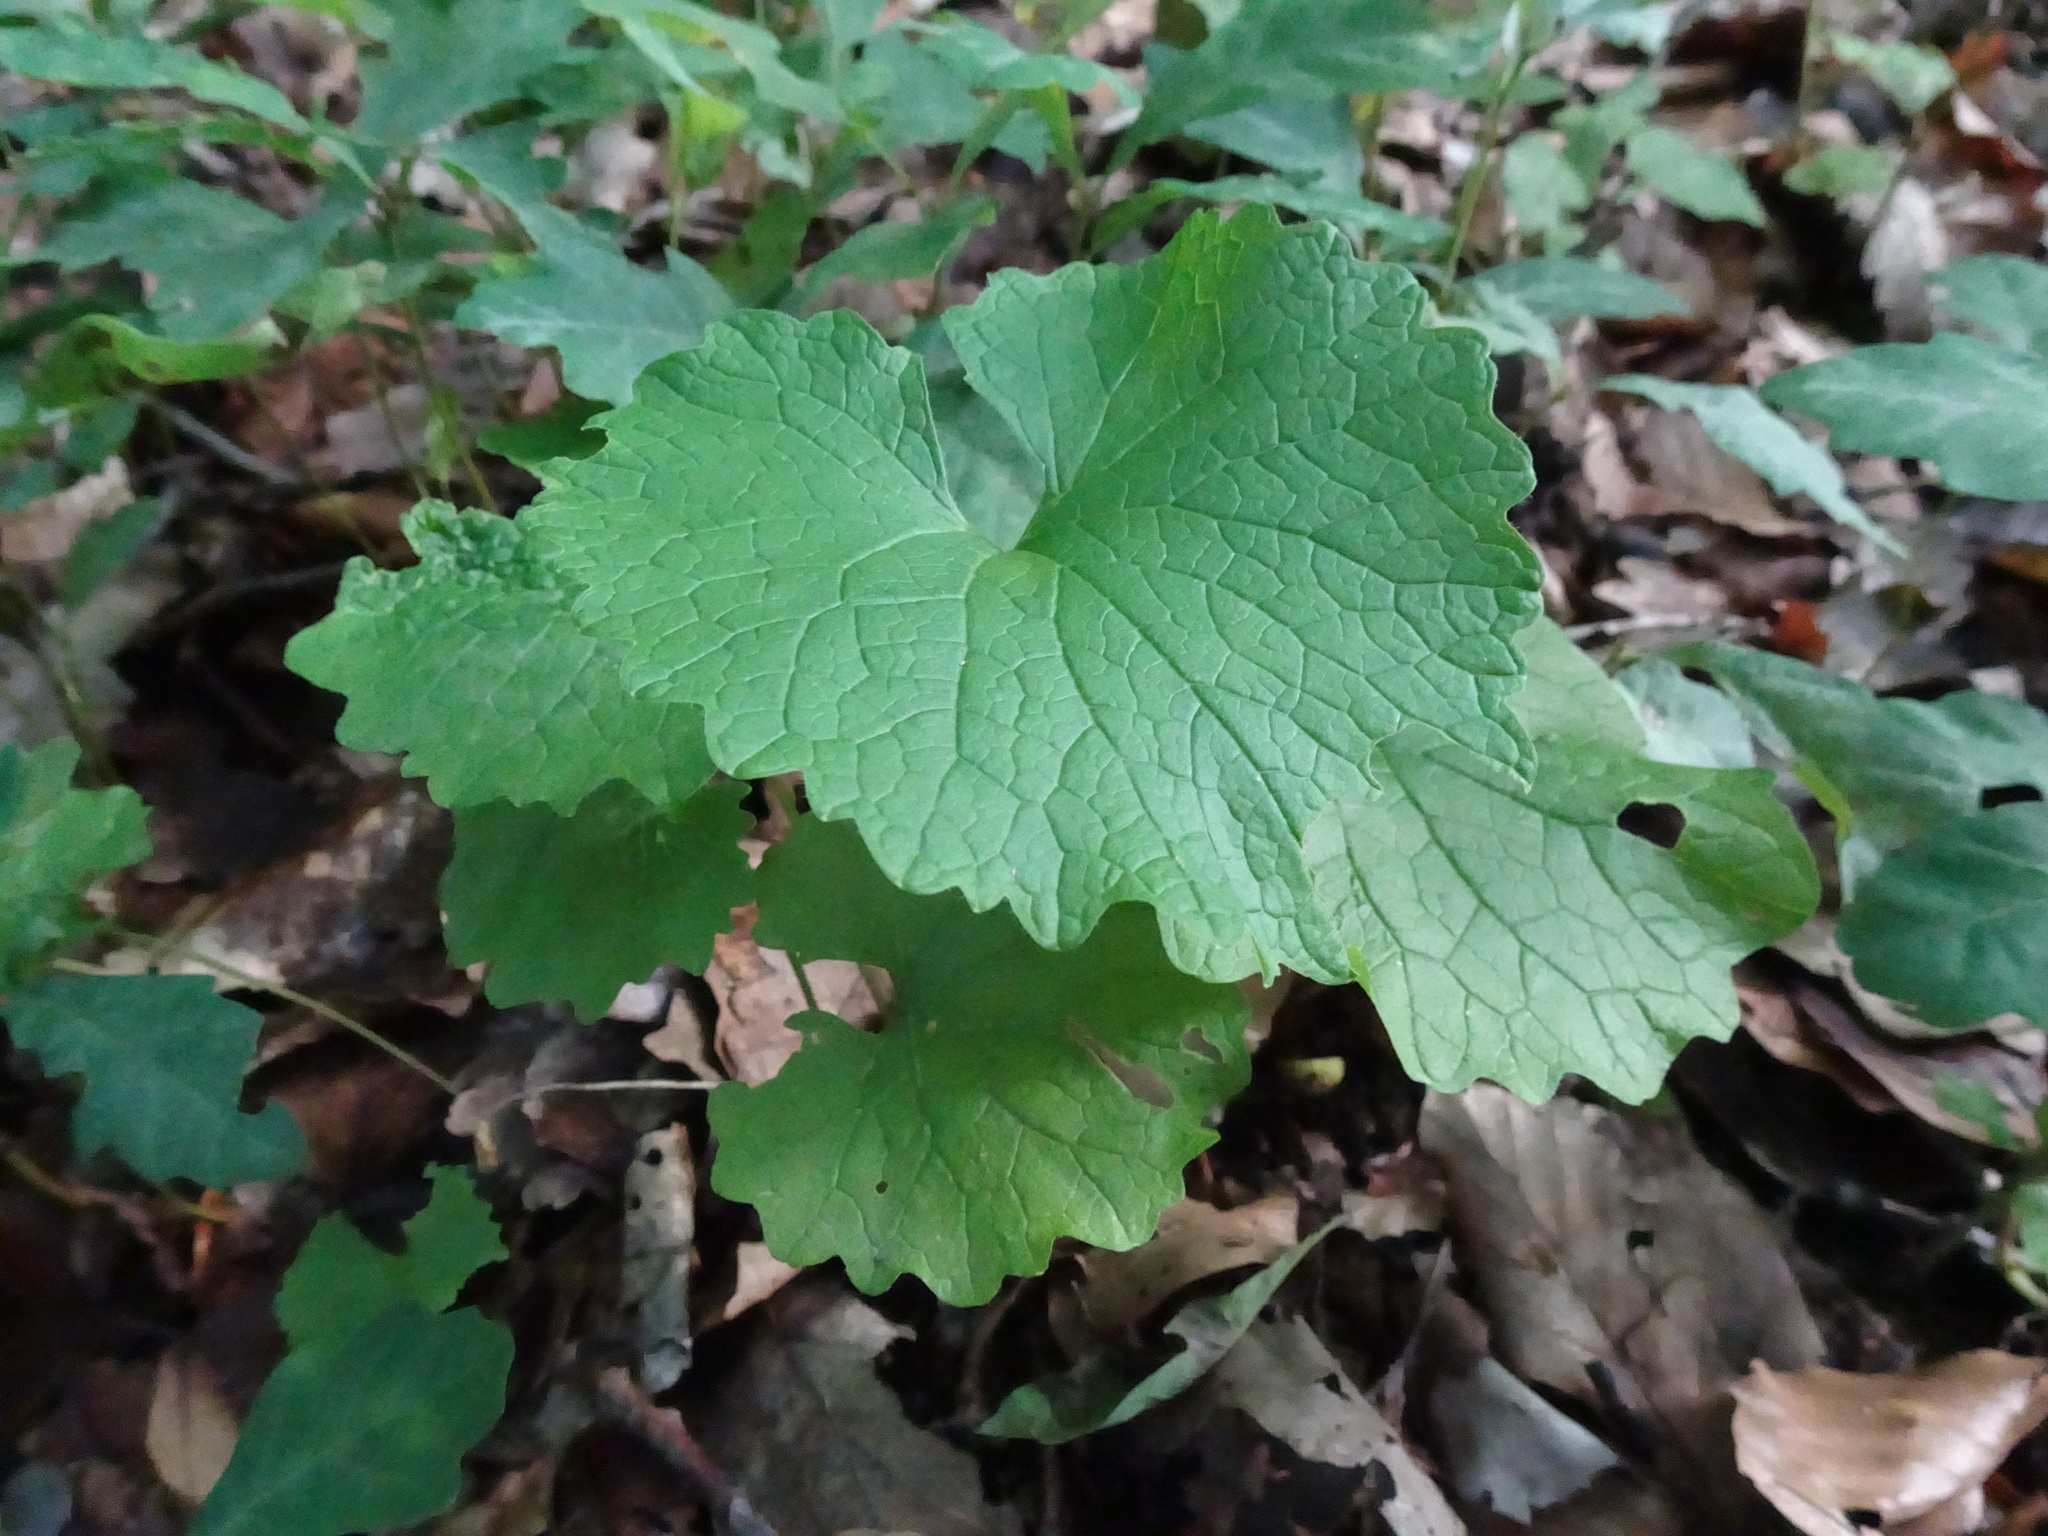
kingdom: Plantae
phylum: Tracheophyta
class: Magnoliopsida
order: Brassicales
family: Brassicaceae
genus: Alliaria
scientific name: Alliaria petiolata
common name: Garlic mustard
